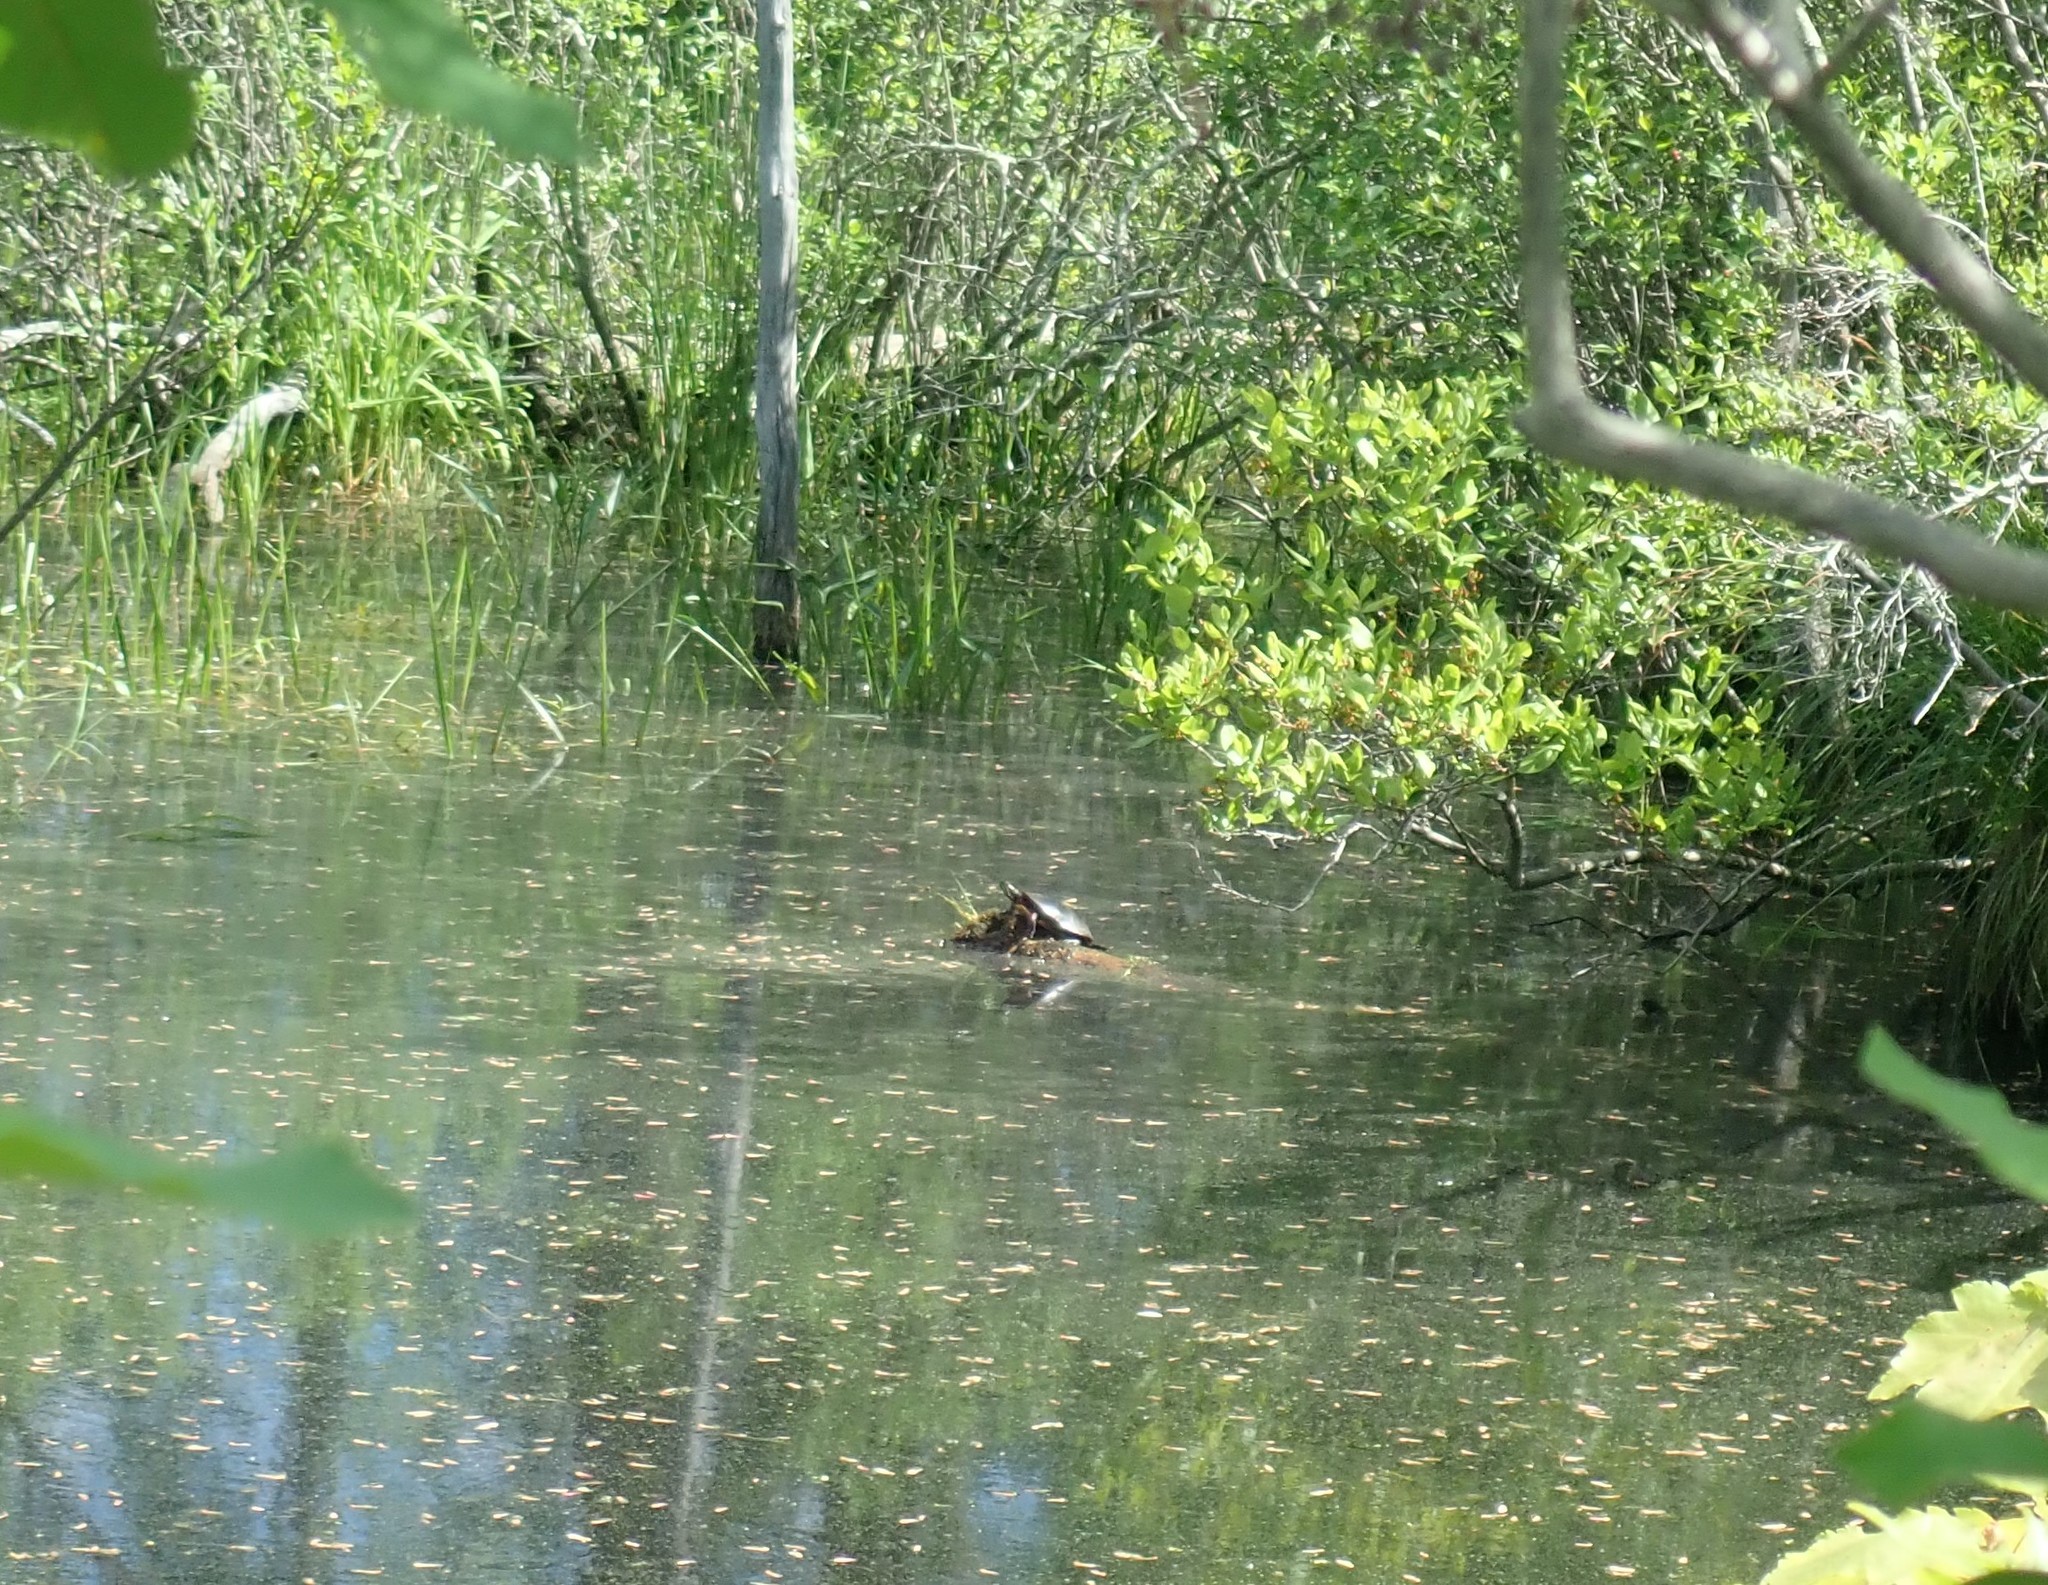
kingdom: Animalia
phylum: Chordata
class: Testudines
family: Emydidae
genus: Chrysemys
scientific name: Chrysemys picta
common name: Painted turtle
